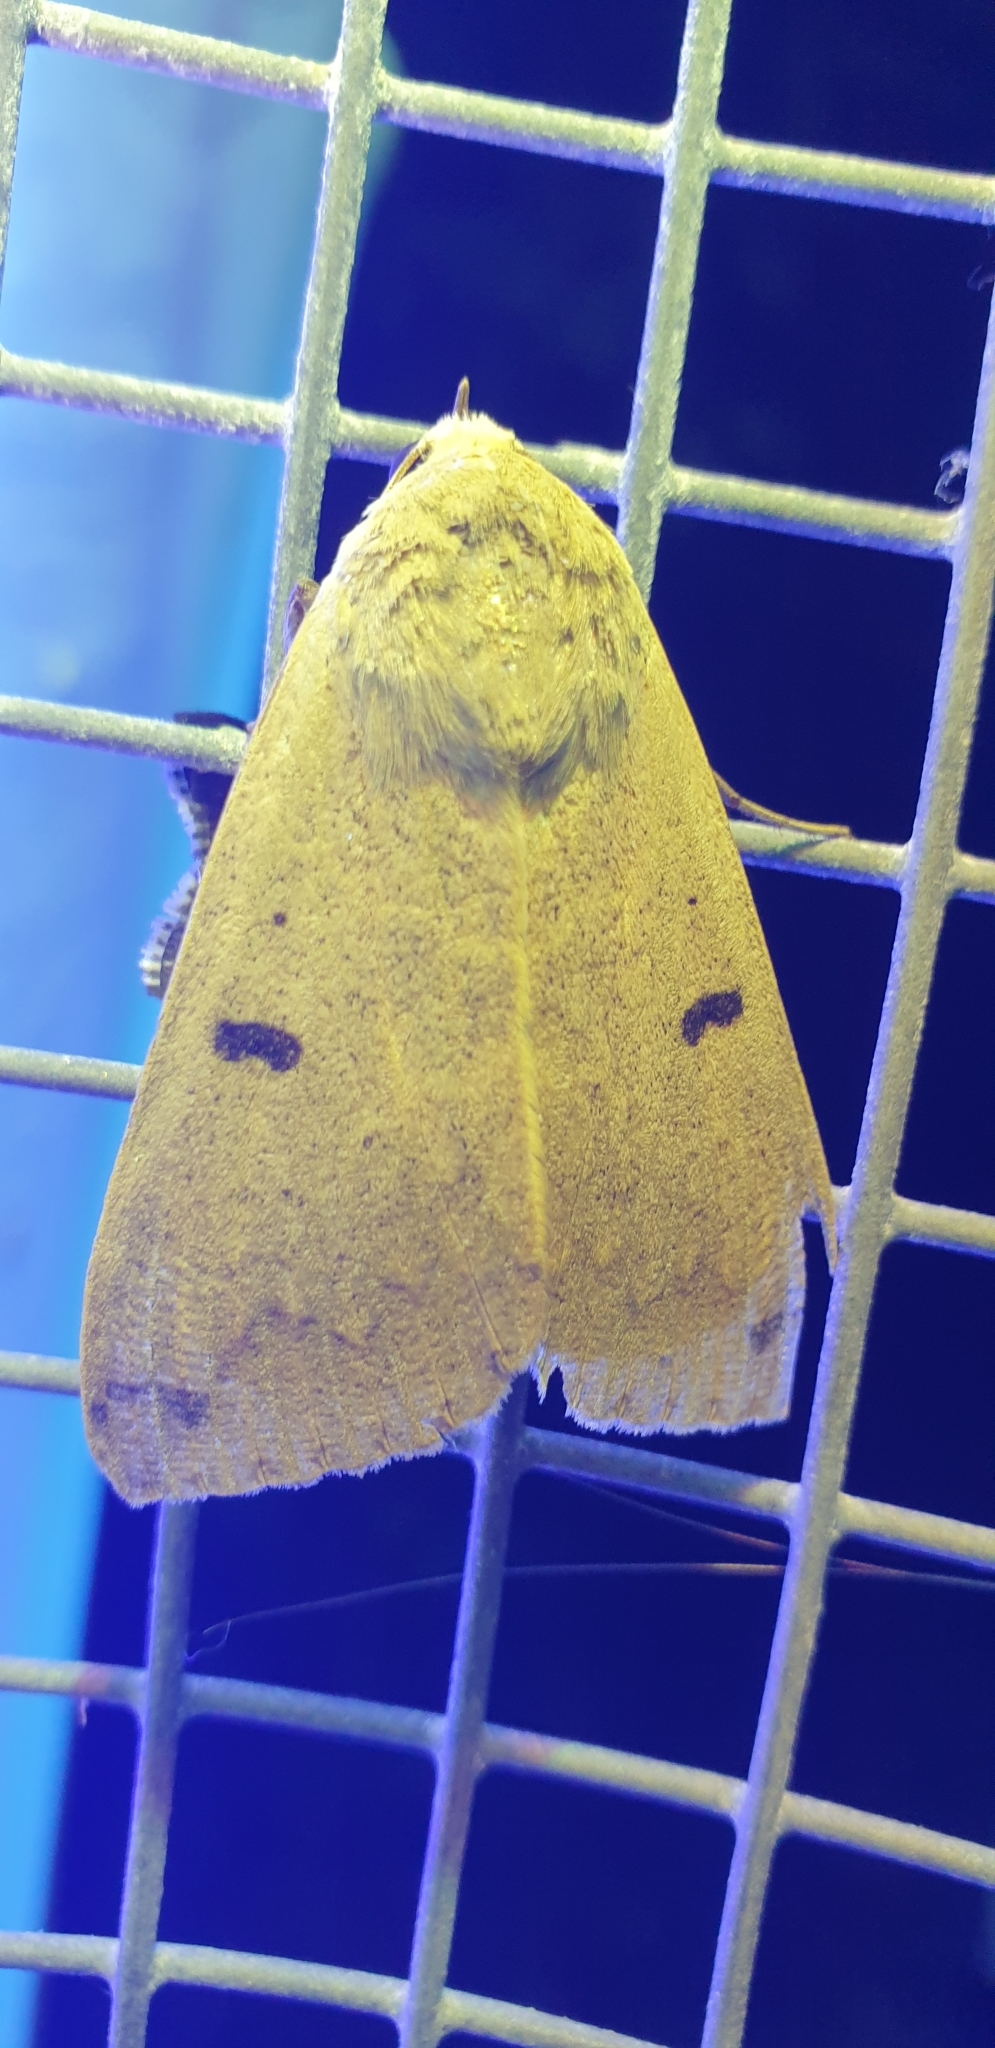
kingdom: Animalia
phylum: Arthropoda
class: Insecta
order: Lepidoptera
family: Erebidae
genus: Ophiusa
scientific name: Ophiusa disjungens
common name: Moth
